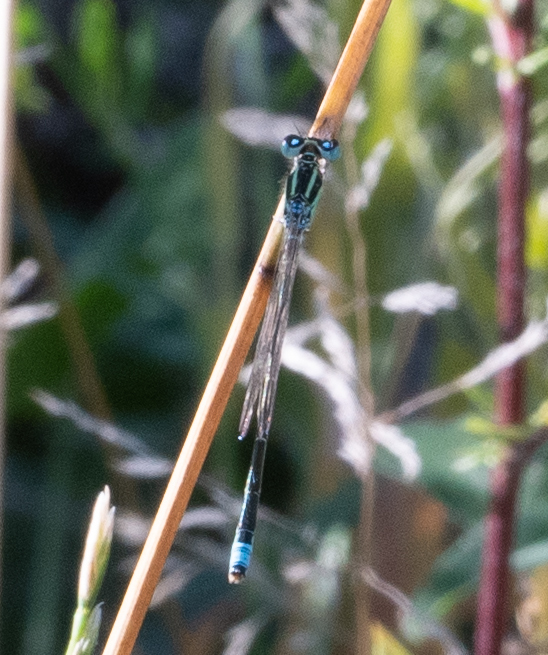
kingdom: Animalia
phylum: Arthropoda
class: Insecta
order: Odonata
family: Coenagrionidae
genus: Ischnura
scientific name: Ischnura pumilio
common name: Scarce blue-tailed damselfly
